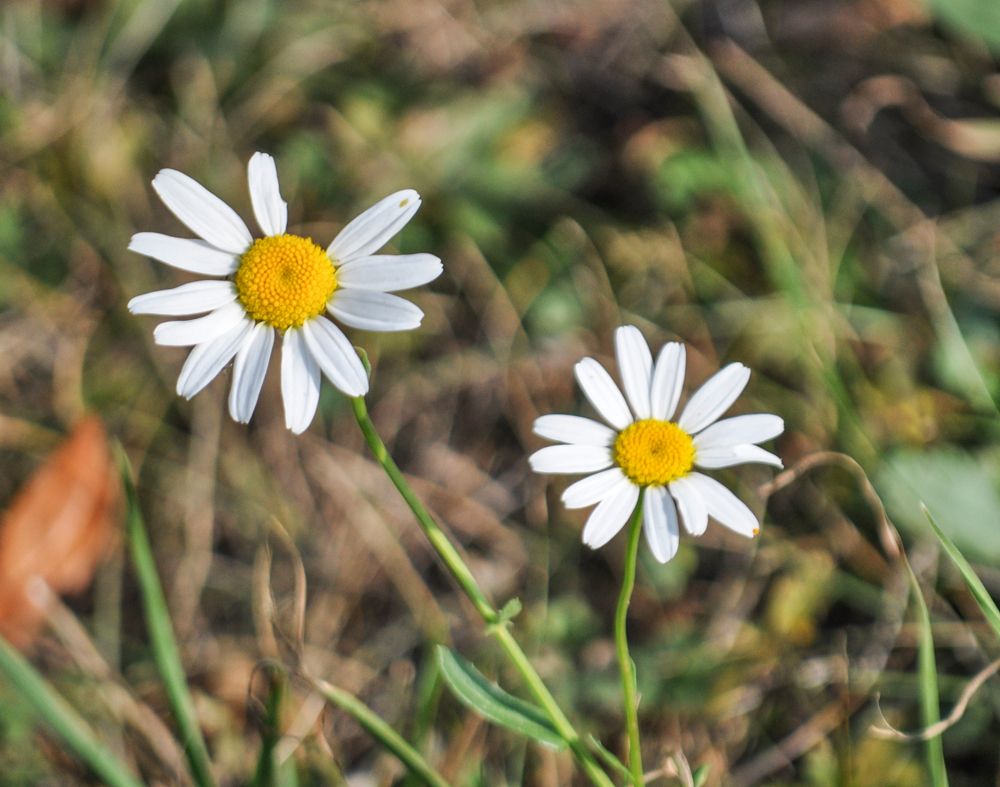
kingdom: Plantae
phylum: Tracheophyta
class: Magnoliopsida
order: Asterales
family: Asteraceae
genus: Leucanthemum
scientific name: Leucanthemum ircutianum
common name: Daisy
